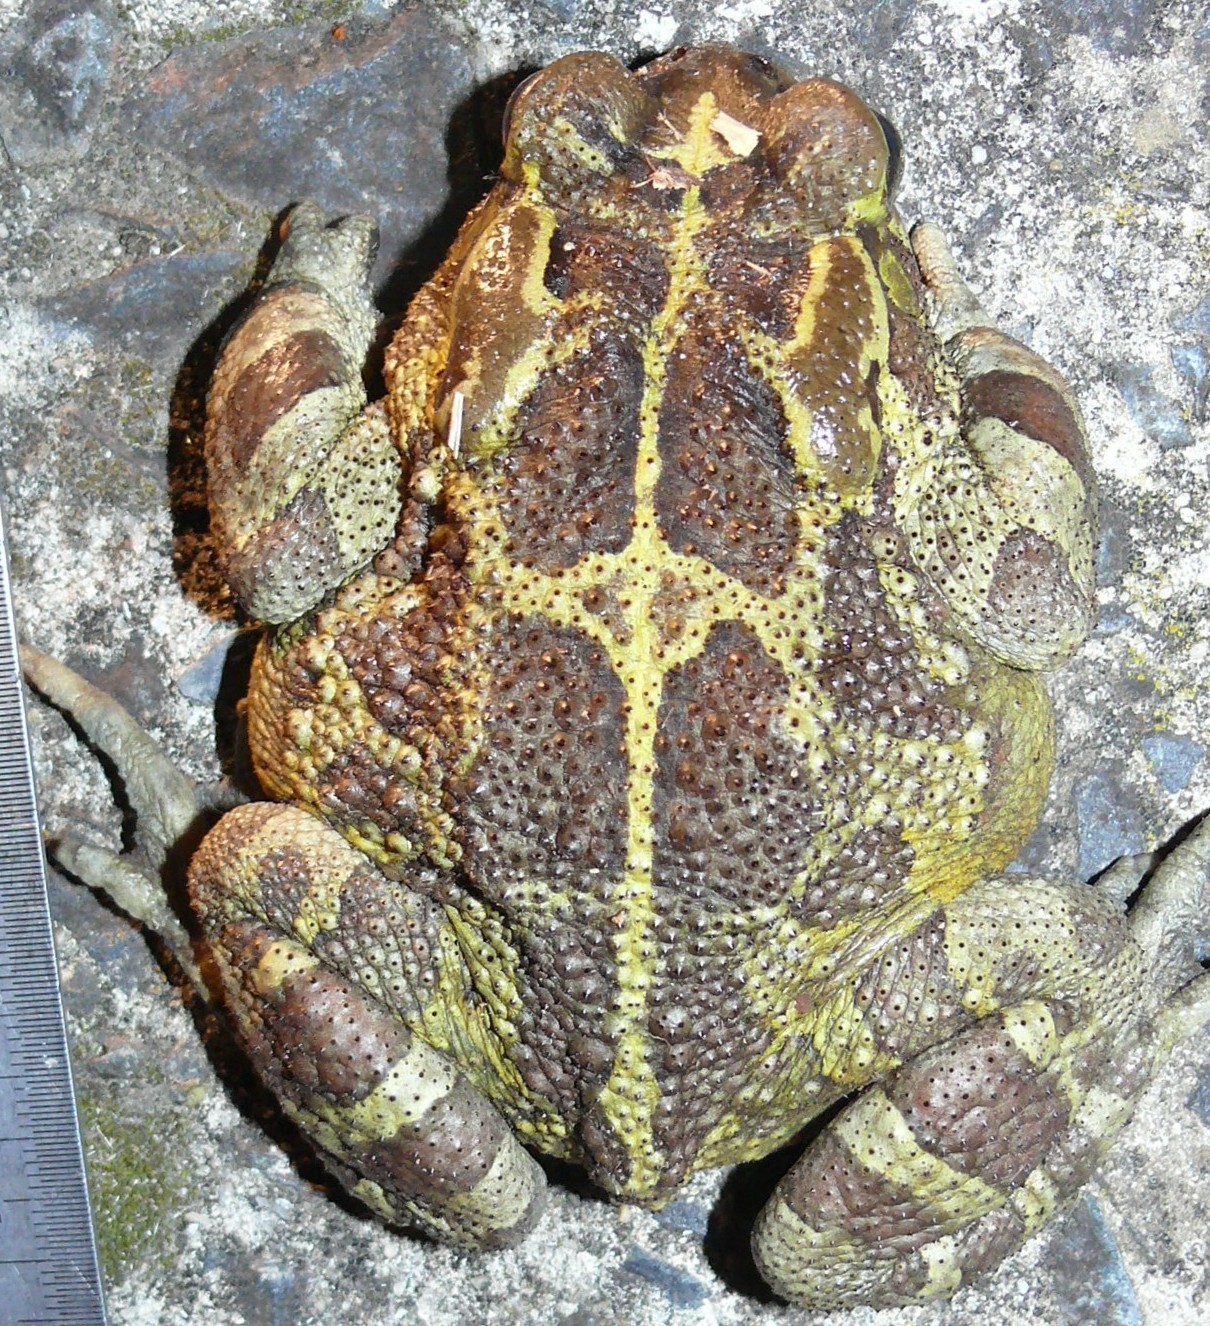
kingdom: Animalia
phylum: Chordata
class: Amphibia
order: Anura
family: Bufonidae
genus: Sclerophrys
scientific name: Sclerophrys pantherina
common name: Panther toad
